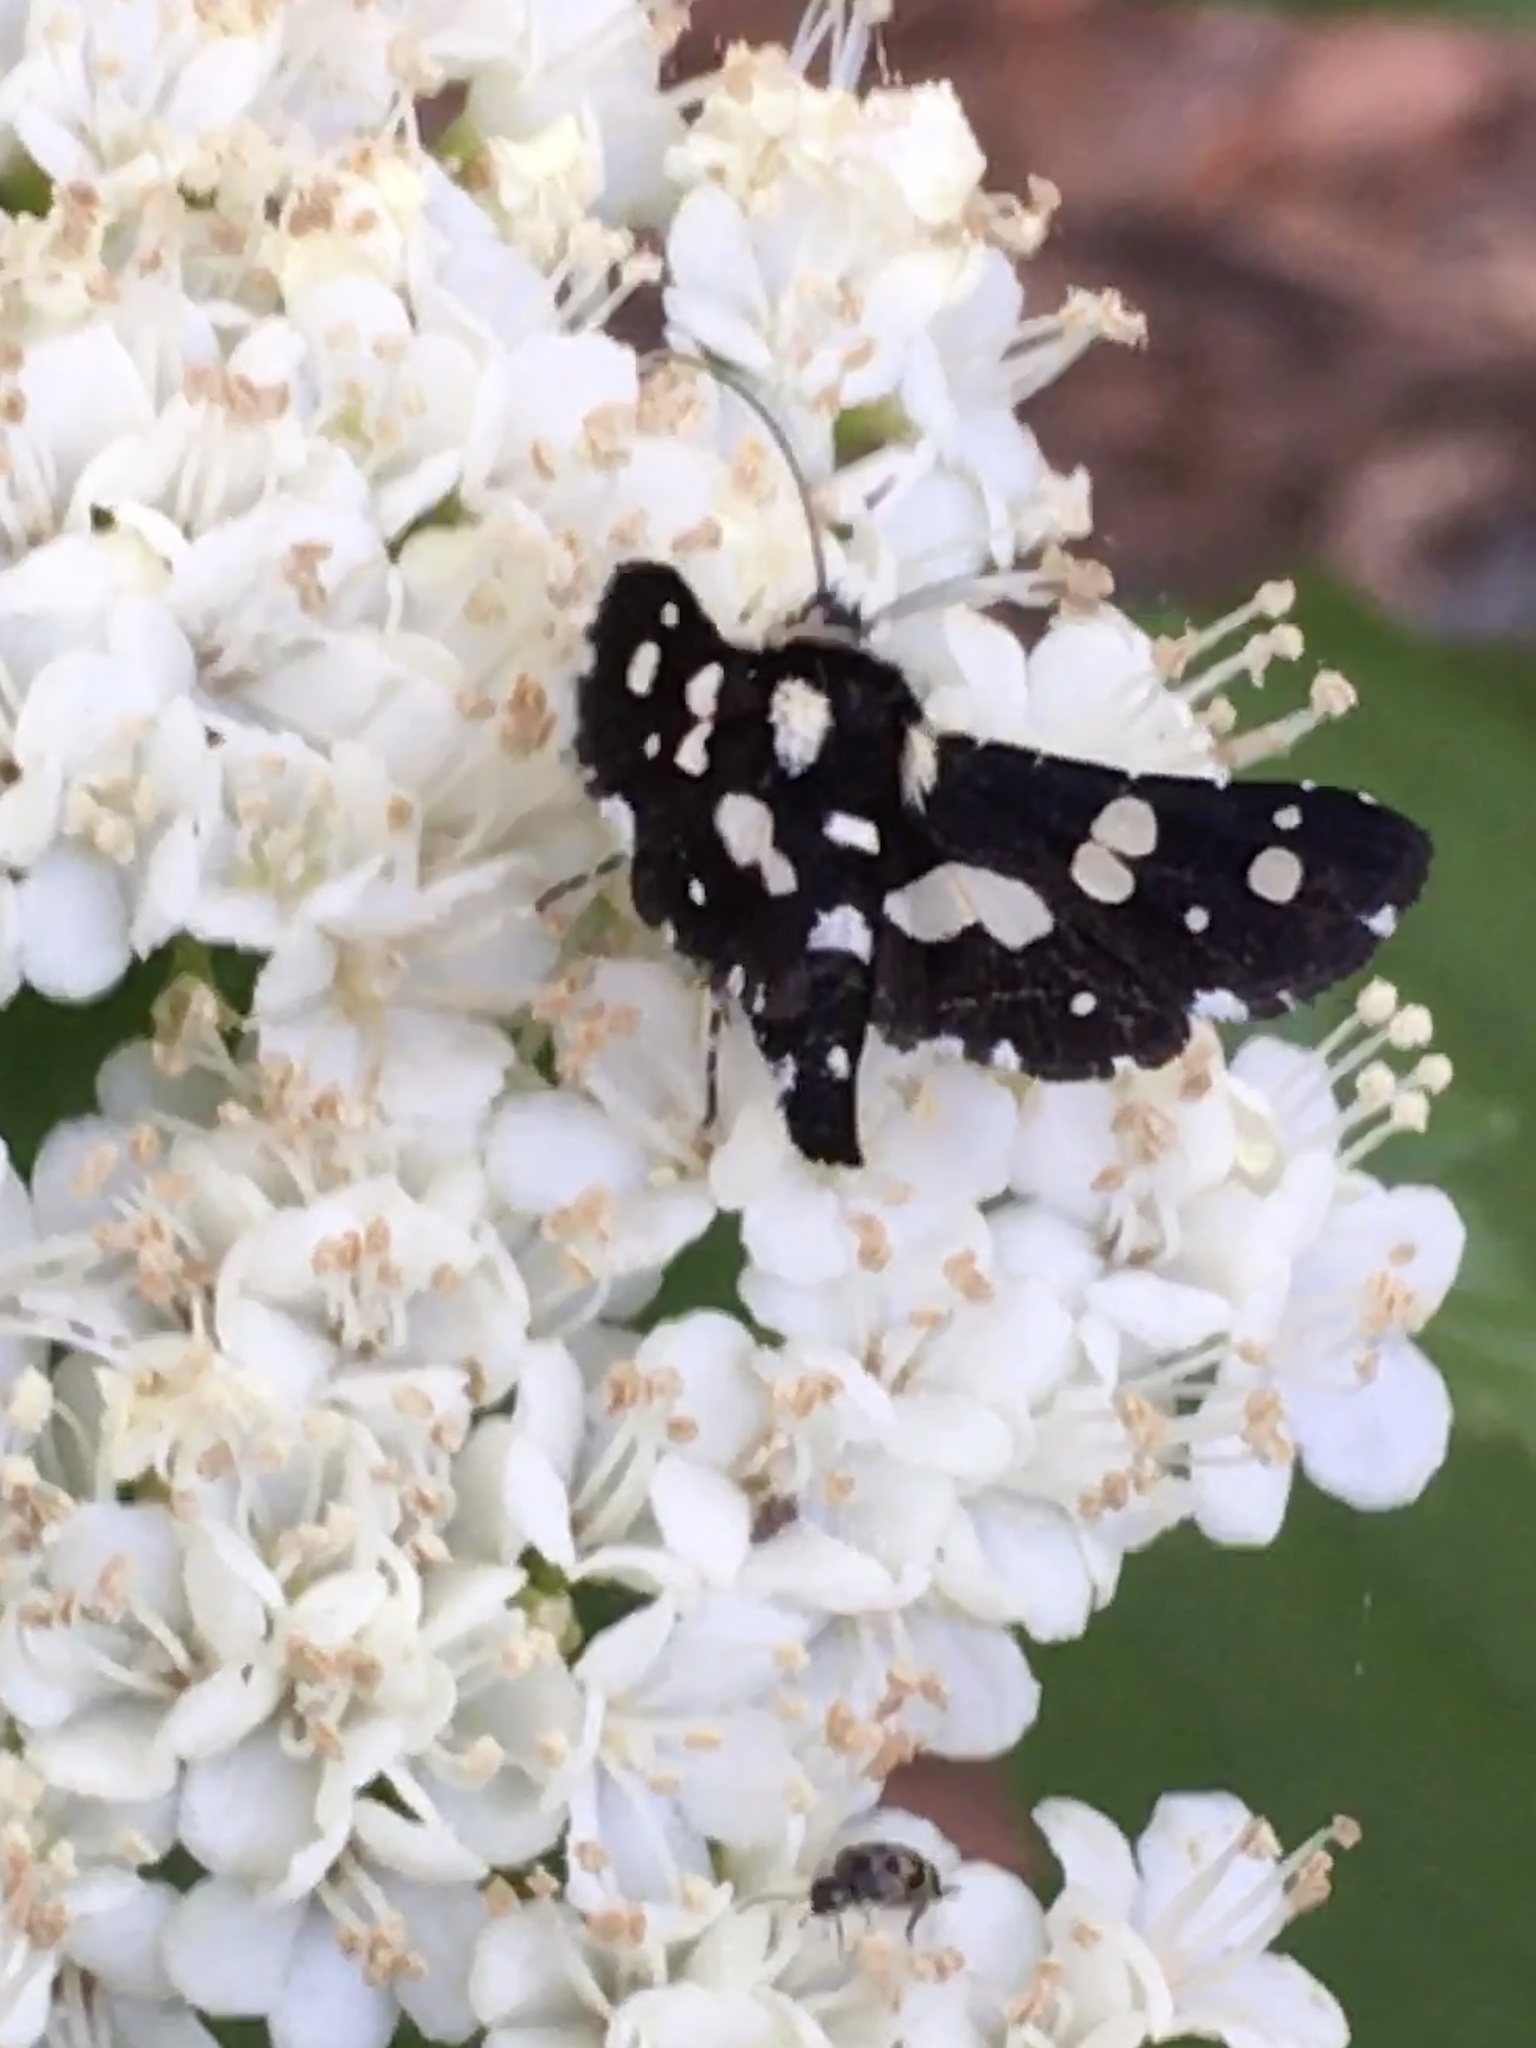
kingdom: Animalia
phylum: Arthropoda
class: Insecta
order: Lepidoptera
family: Thyrididae
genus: Pseudothyris
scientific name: Pseudothyris sepulchralis
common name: Mournful thyris moth
